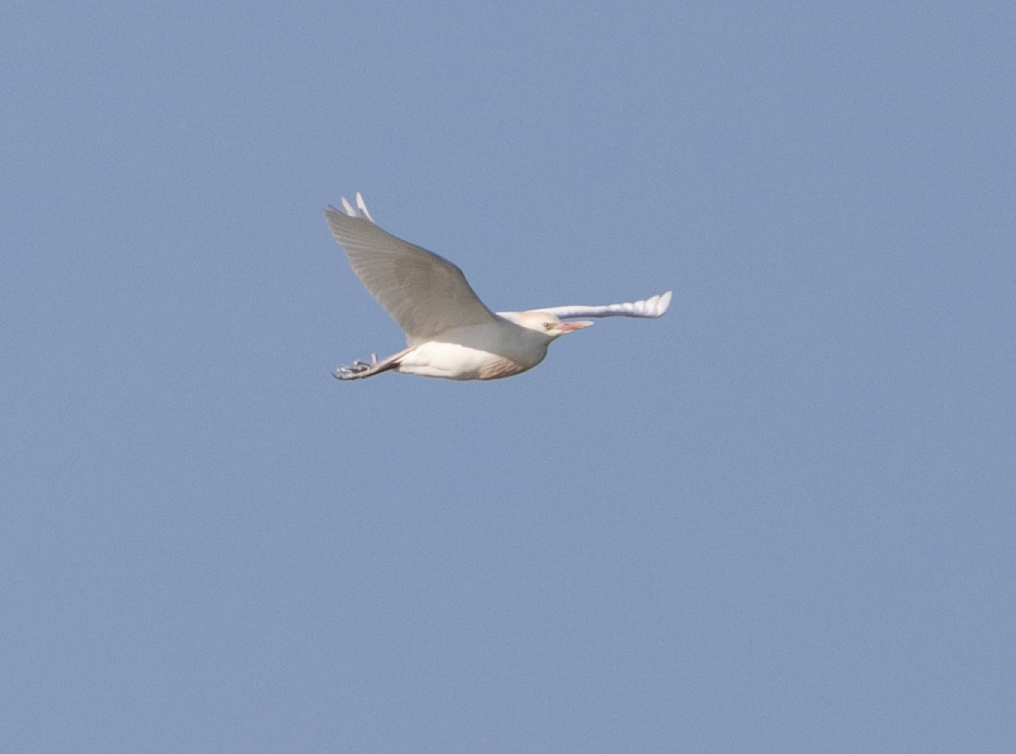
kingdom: Animalia
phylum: Chordata
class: Aves
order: Pelecaniformes
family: Ardeidae
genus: Bubulcus
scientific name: Bubulcus ibis
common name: Cattle egret
